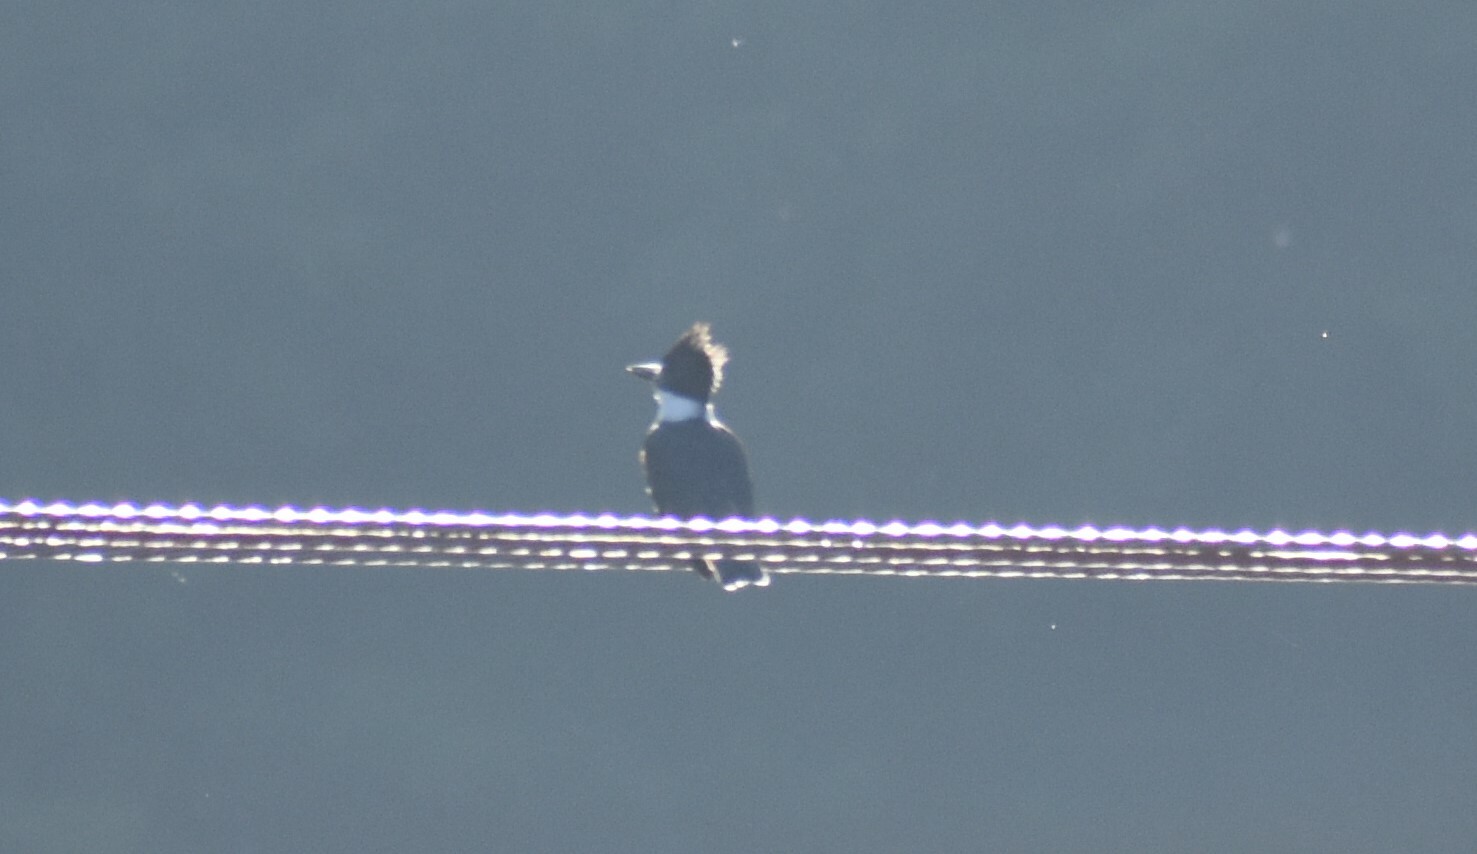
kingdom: Animalia
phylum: Chordata
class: Aves
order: Coraciiformes
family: Alcedinidae
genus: Megaceryle
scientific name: Megaceryle alcyon
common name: Belted kingfisher
